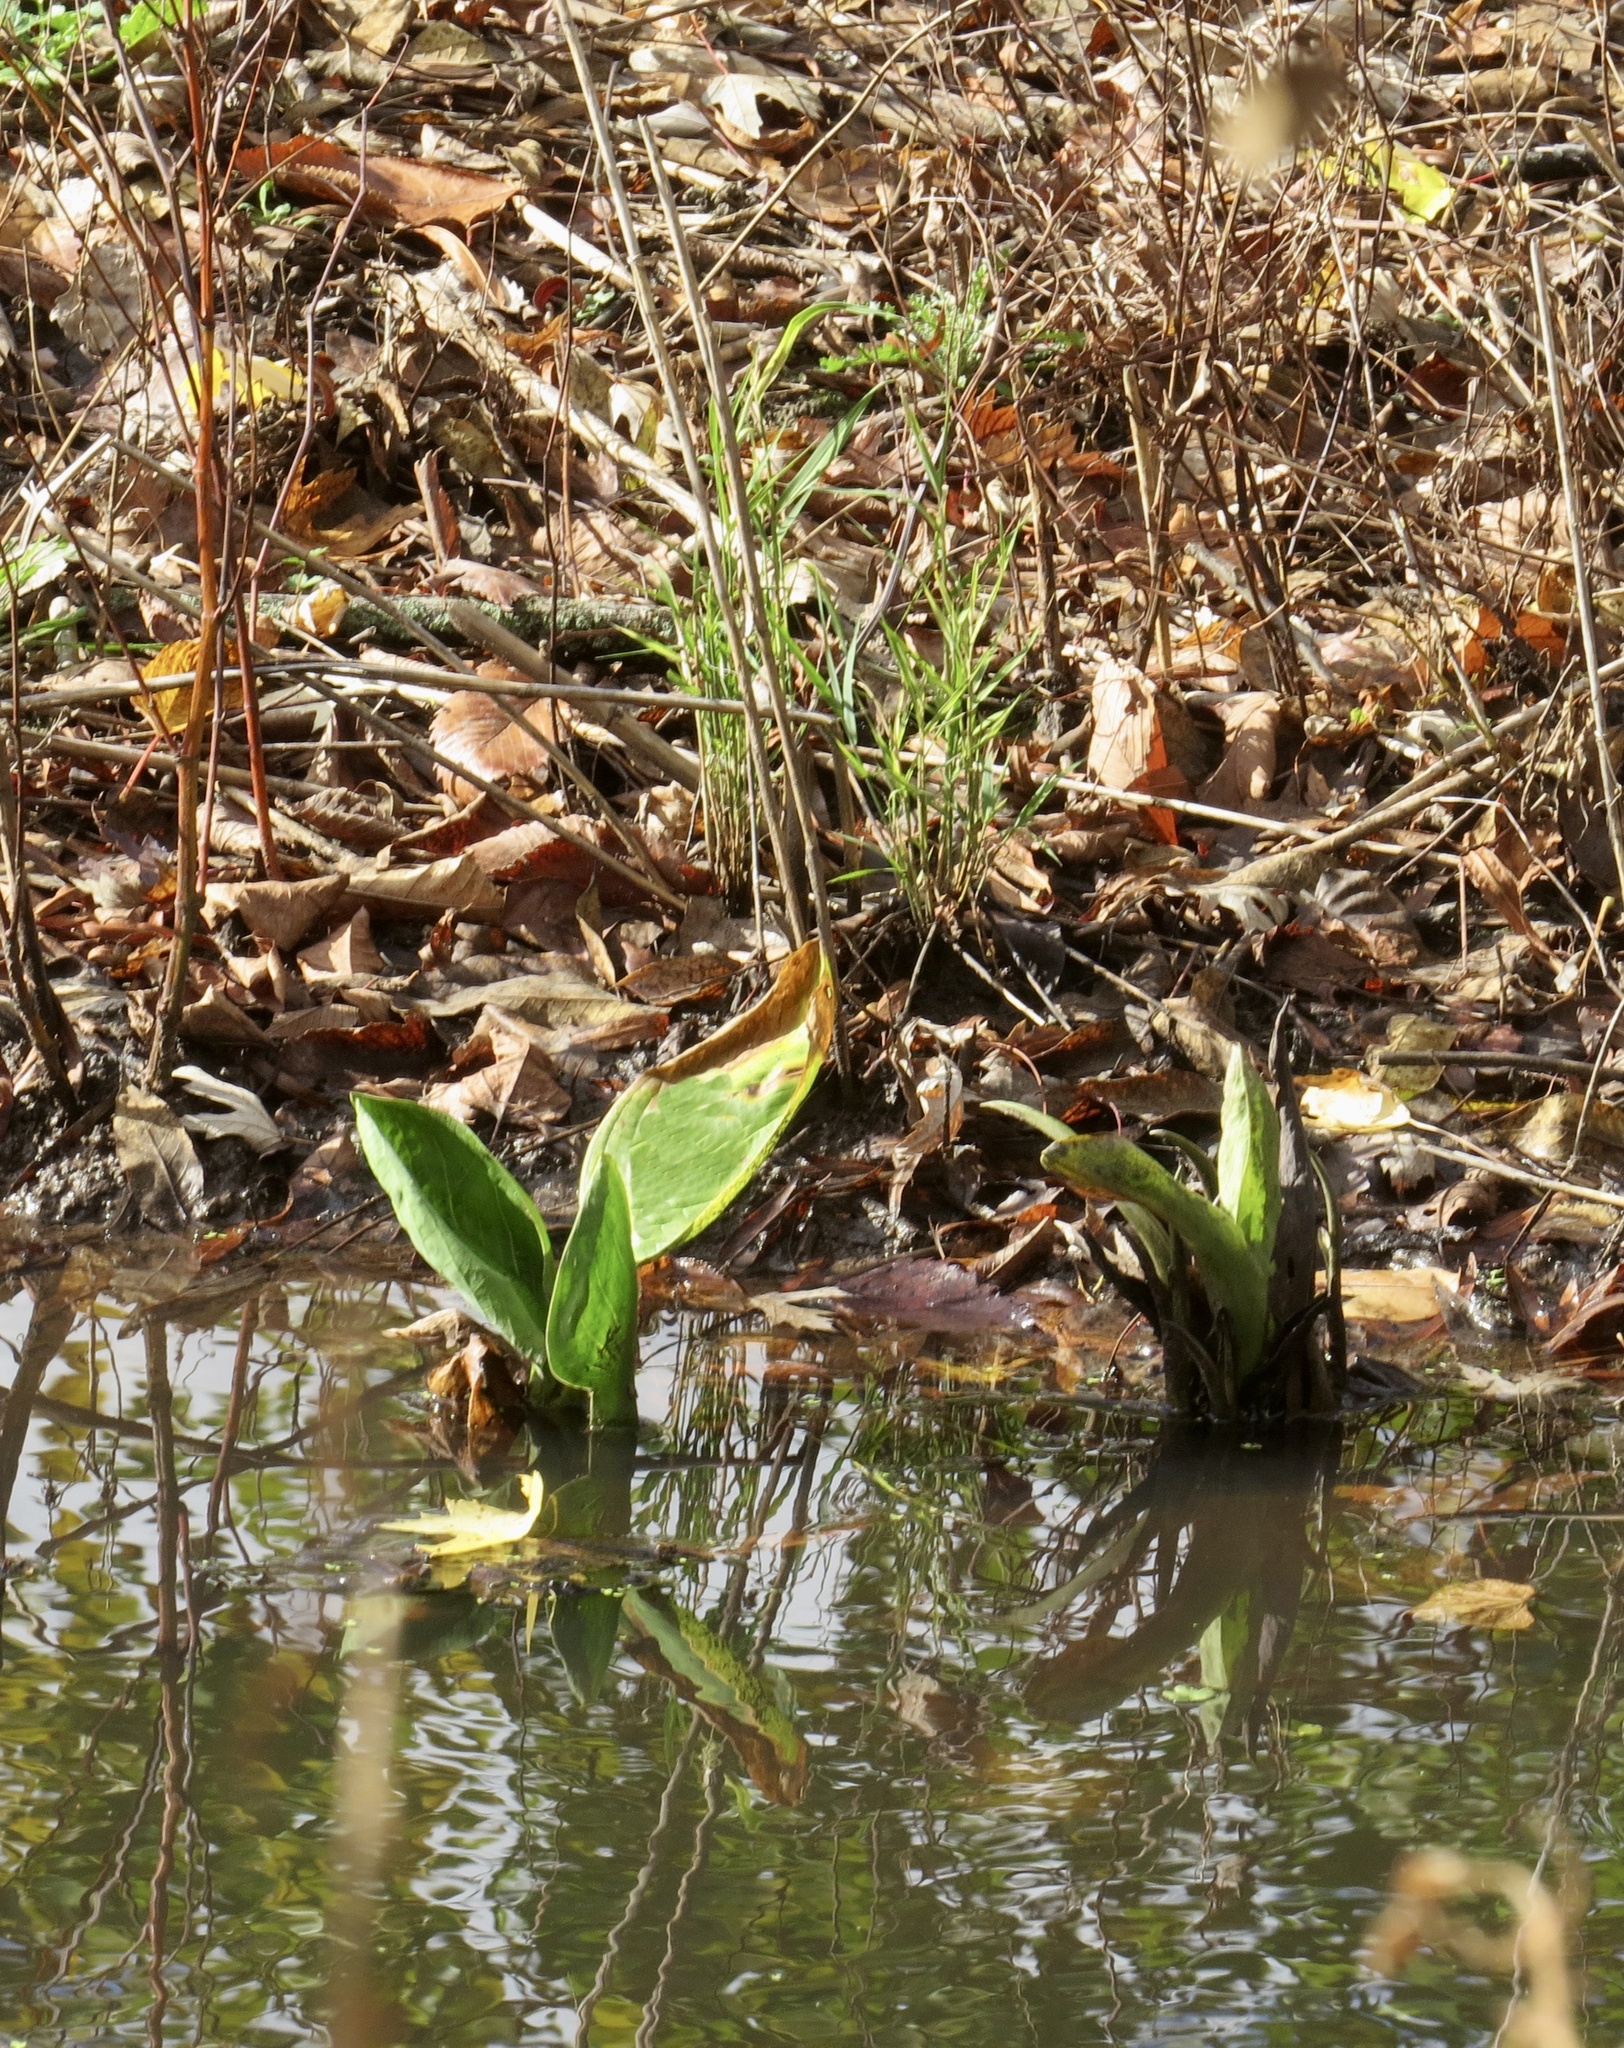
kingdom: Plantae
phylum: Tracheophyta
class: Liliopsida
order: Alismatales
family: Araceae
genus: Symplocarpus
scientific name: Symplocarpus foetidus
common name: Eastern skunk cabbage
